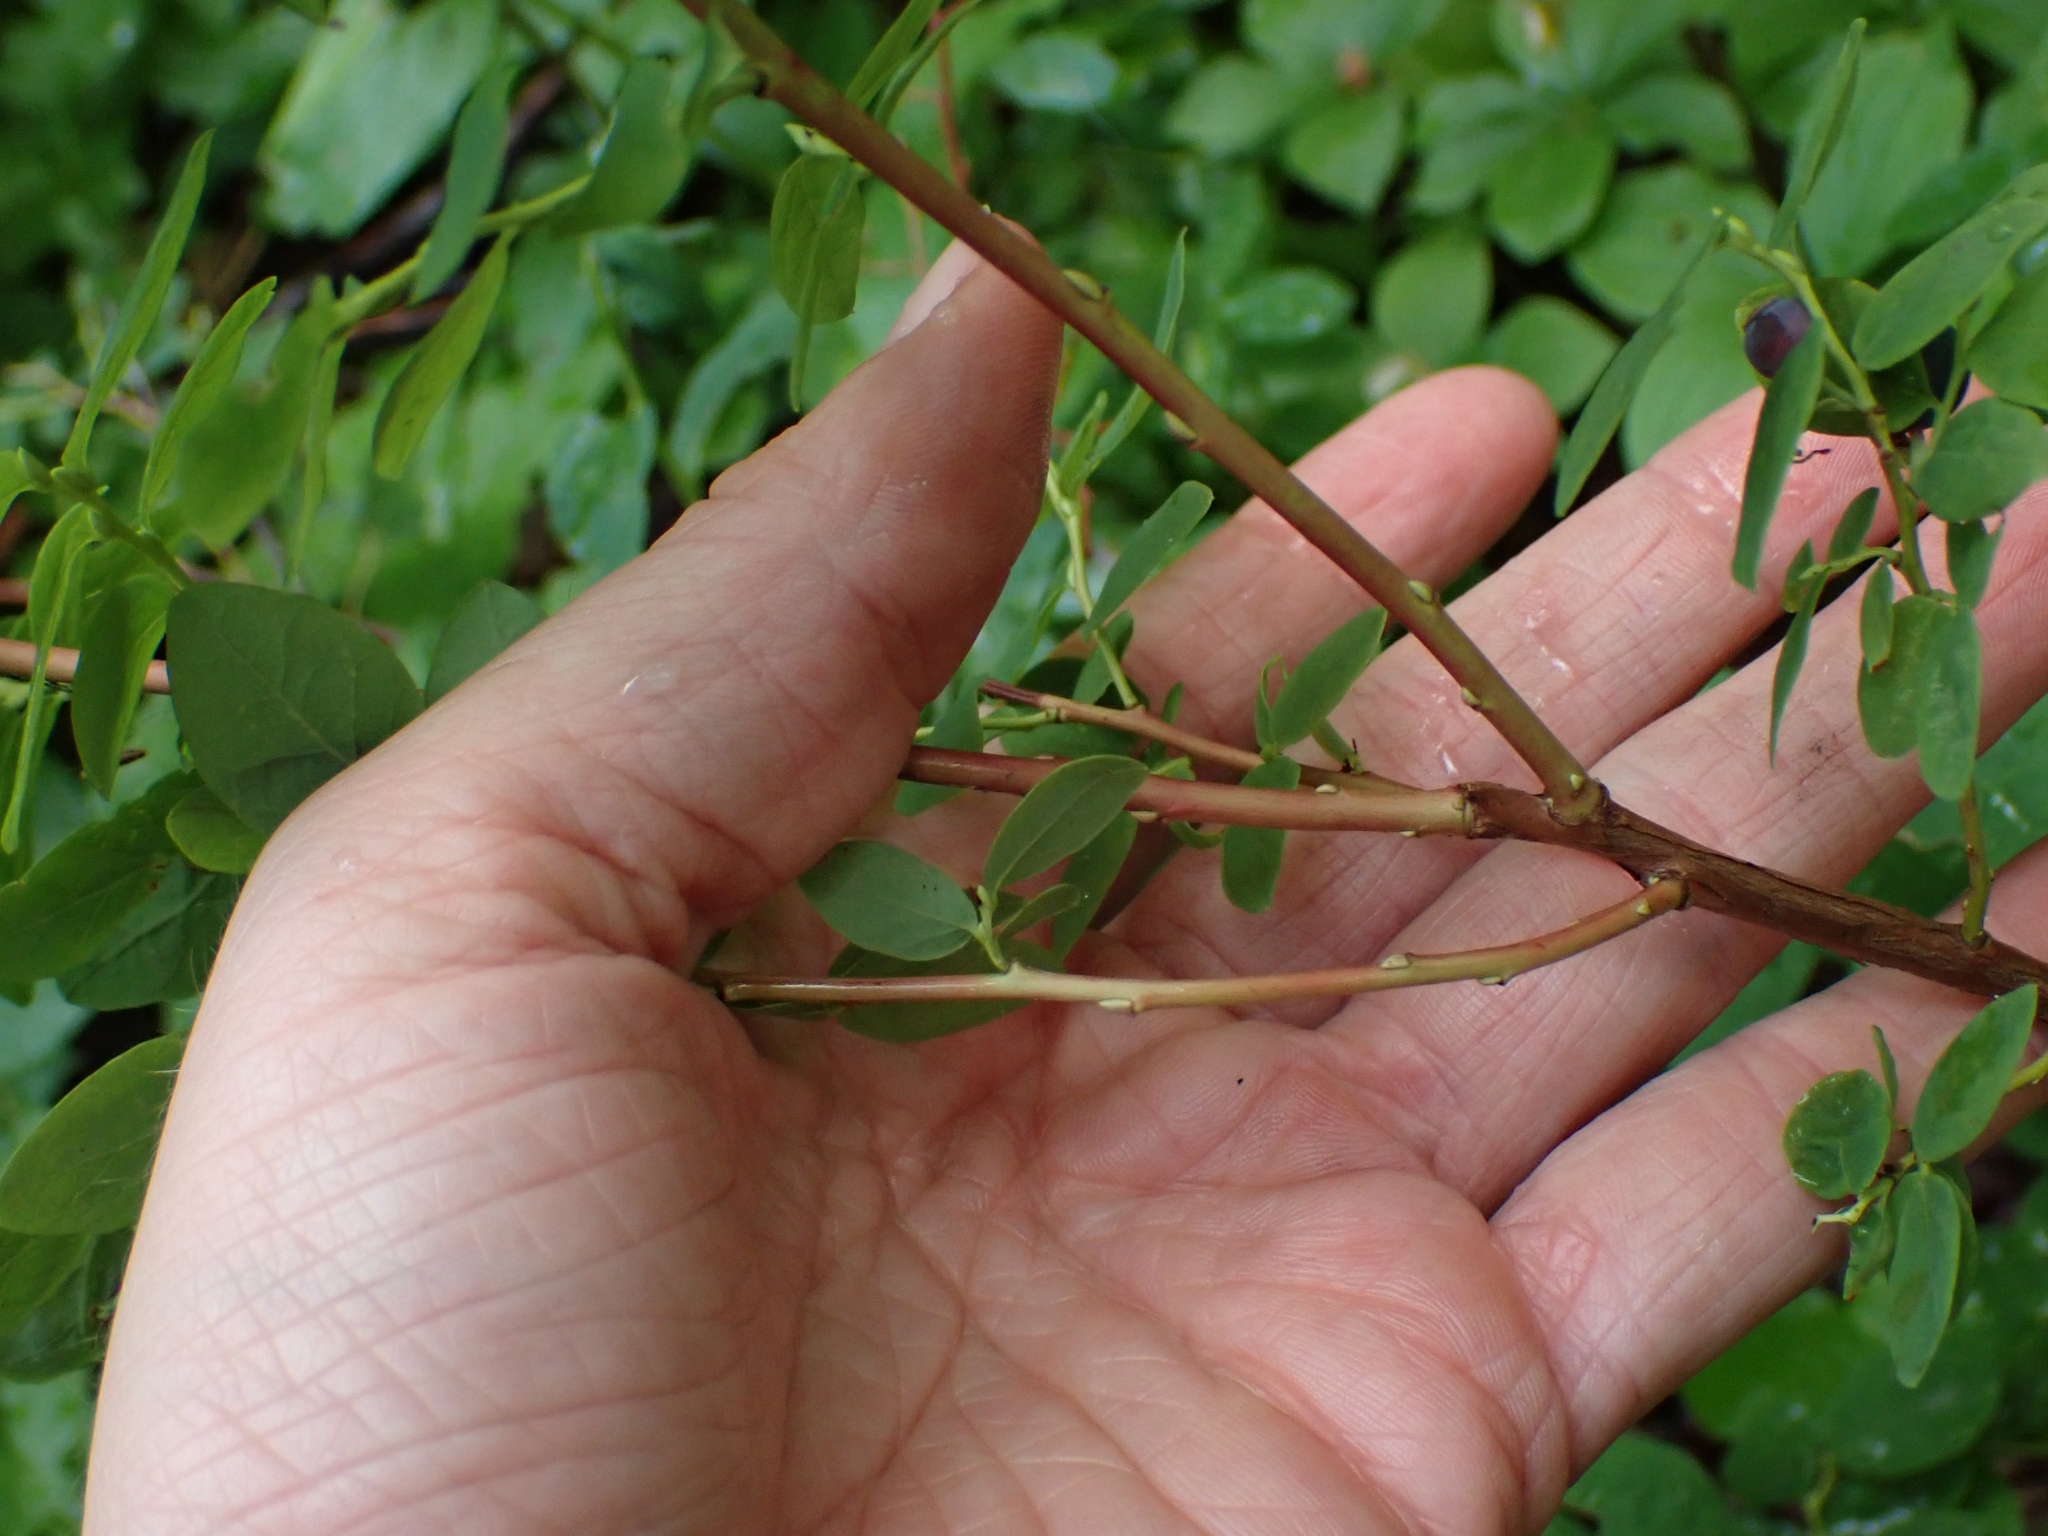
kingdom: Plantae
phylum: Tracheophyta
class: Magnoliopsida
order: Ericales
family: Ericaceae
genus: Vaccinium
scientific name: Vaccinium ovalifolium
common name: Early blueberry
